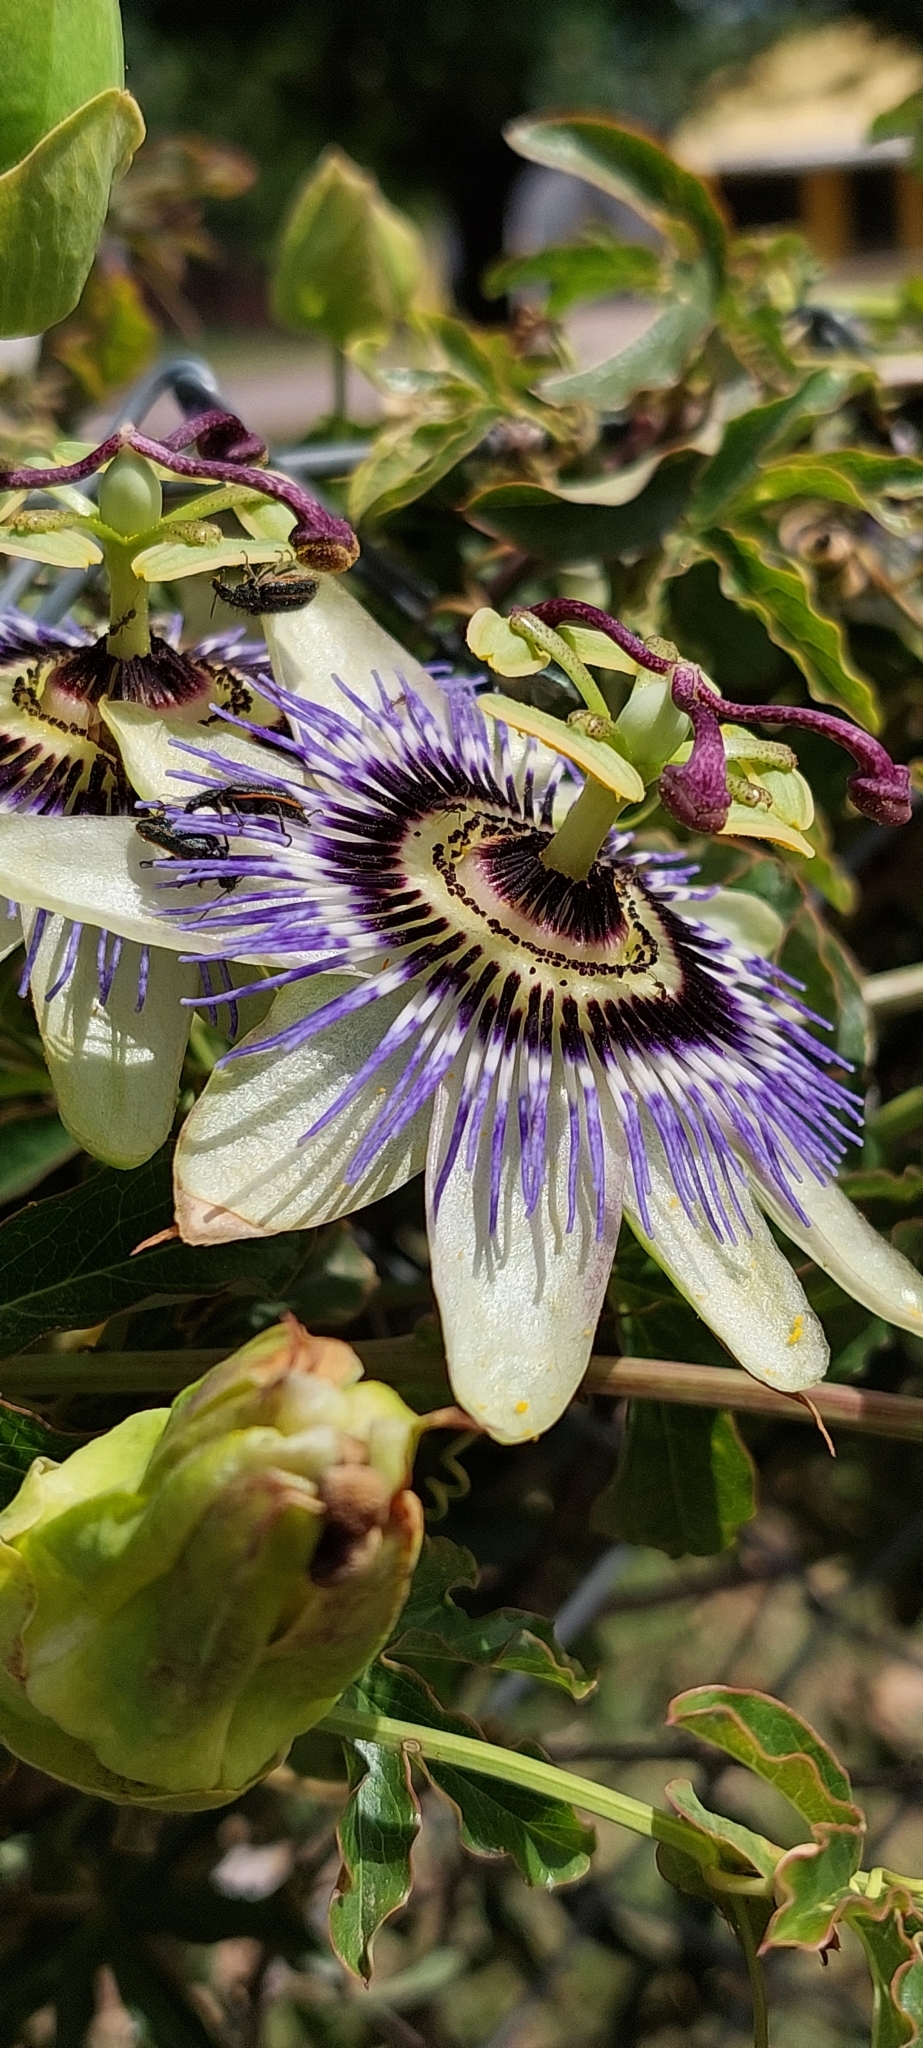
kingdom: Plantae
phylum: Tracheophyta
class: Magnoliopsida
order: Malpighiales
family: Passifloraceae
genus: Passiflora
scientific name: Passiflora caerulea
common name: Blue passionflower
